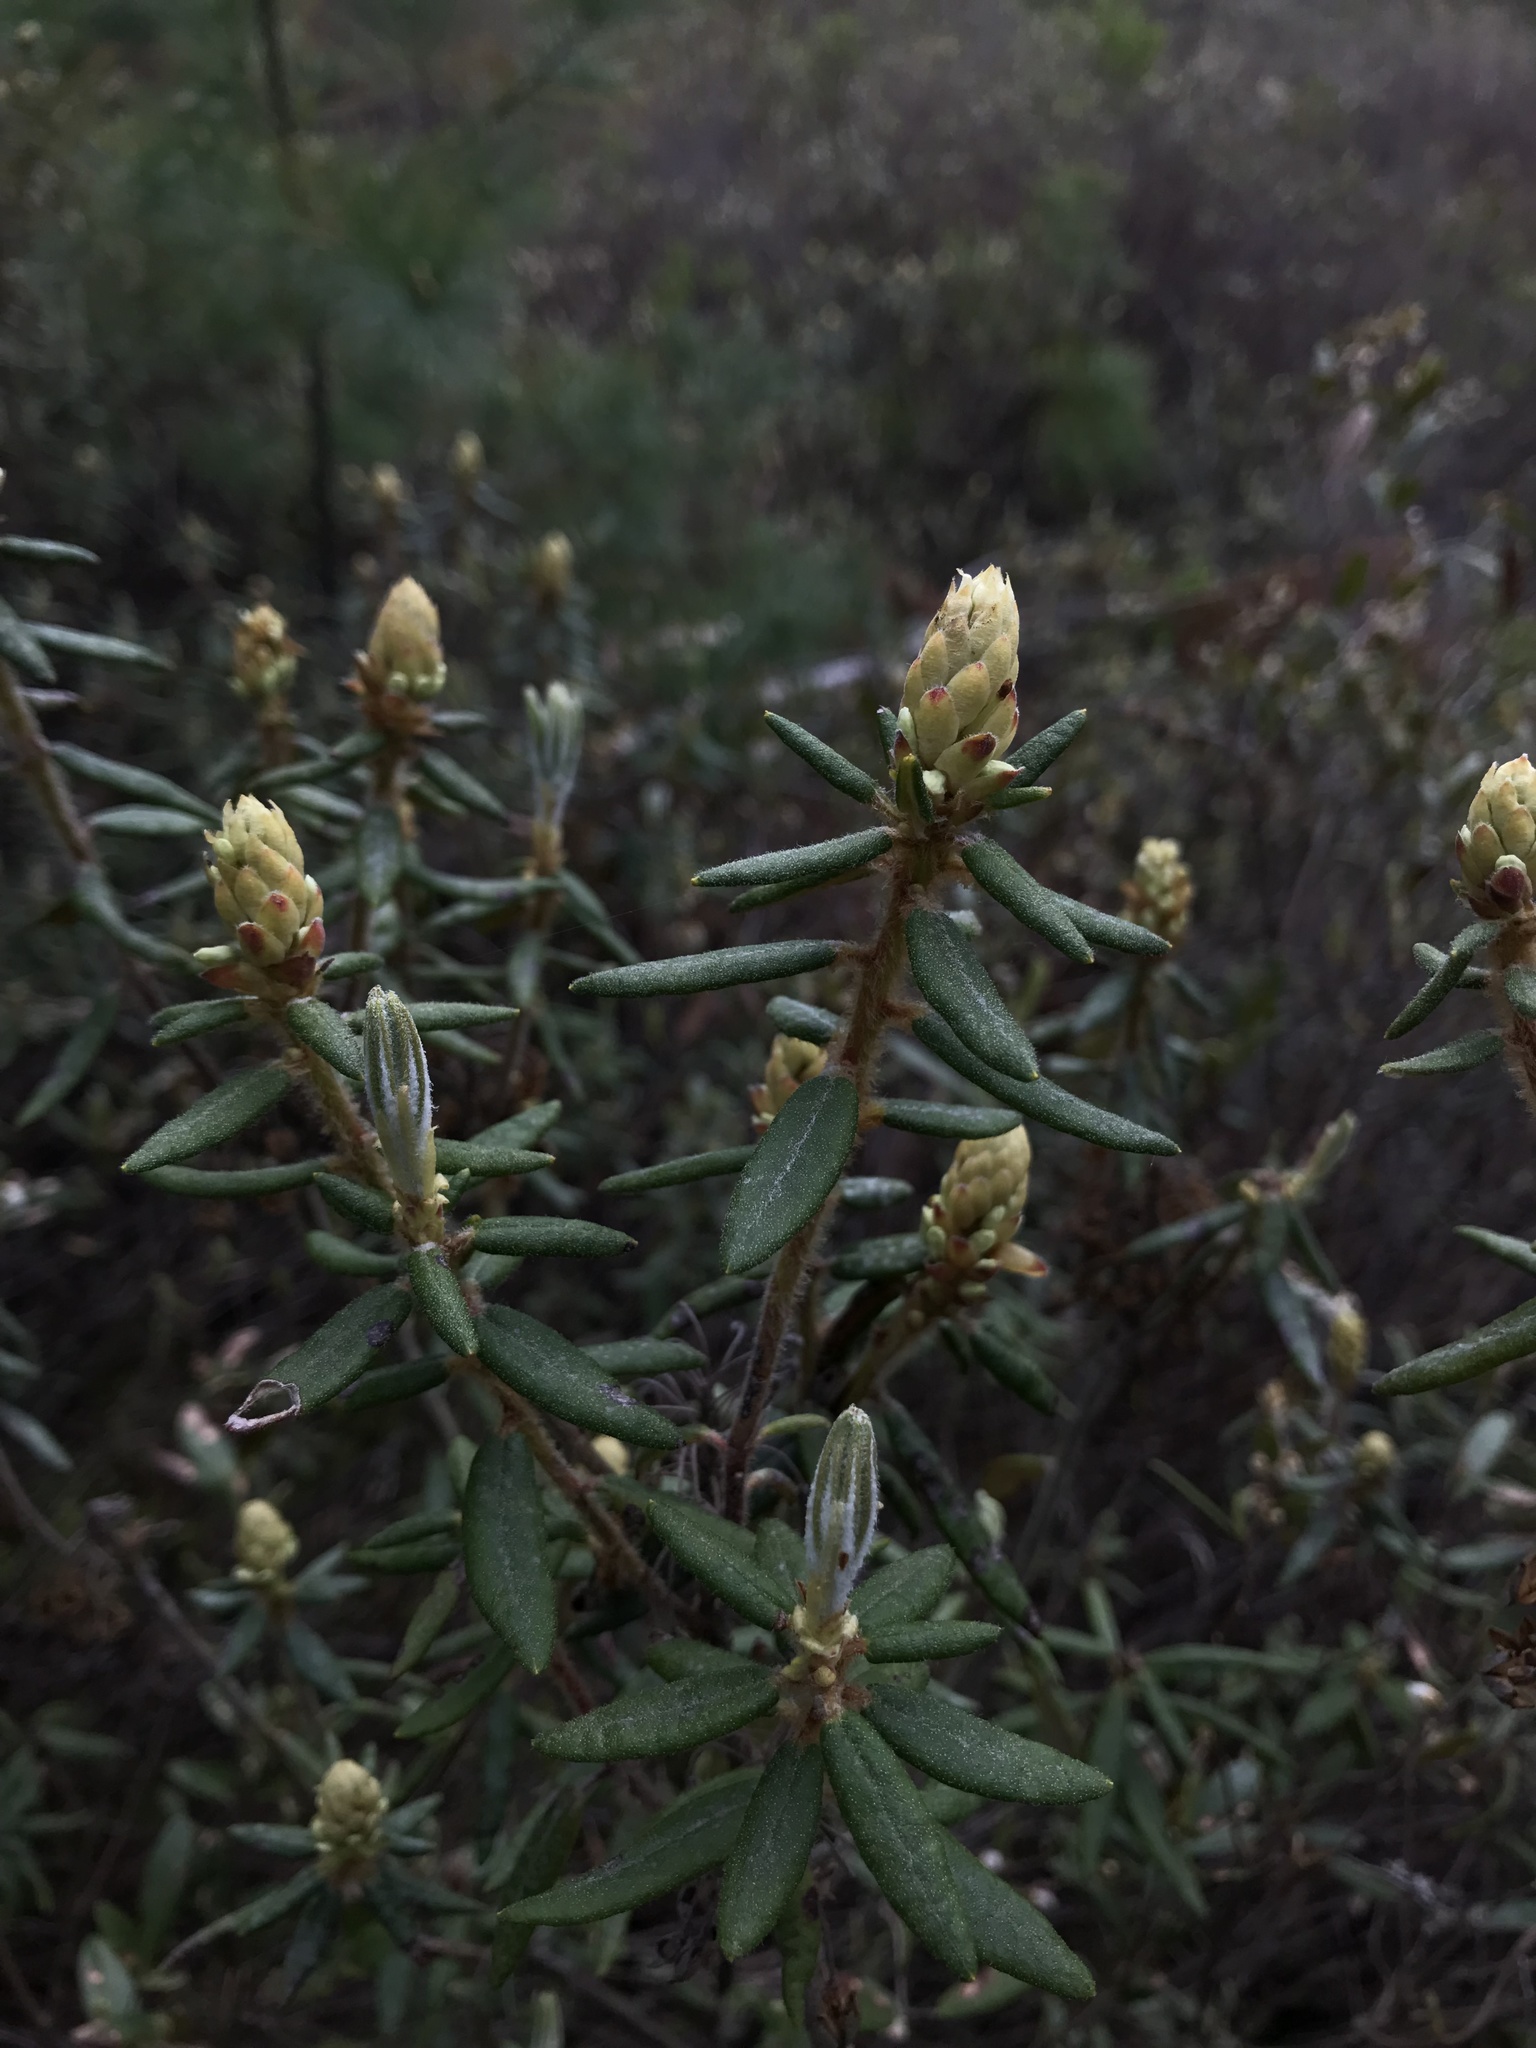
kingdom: Plantae
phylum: Tracheophyta
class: Magnoliopsida
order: Ericales
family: Ericaceae
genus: Rhododendron
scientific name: Rhododendron groenlandicum
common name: Bog labrador tea
